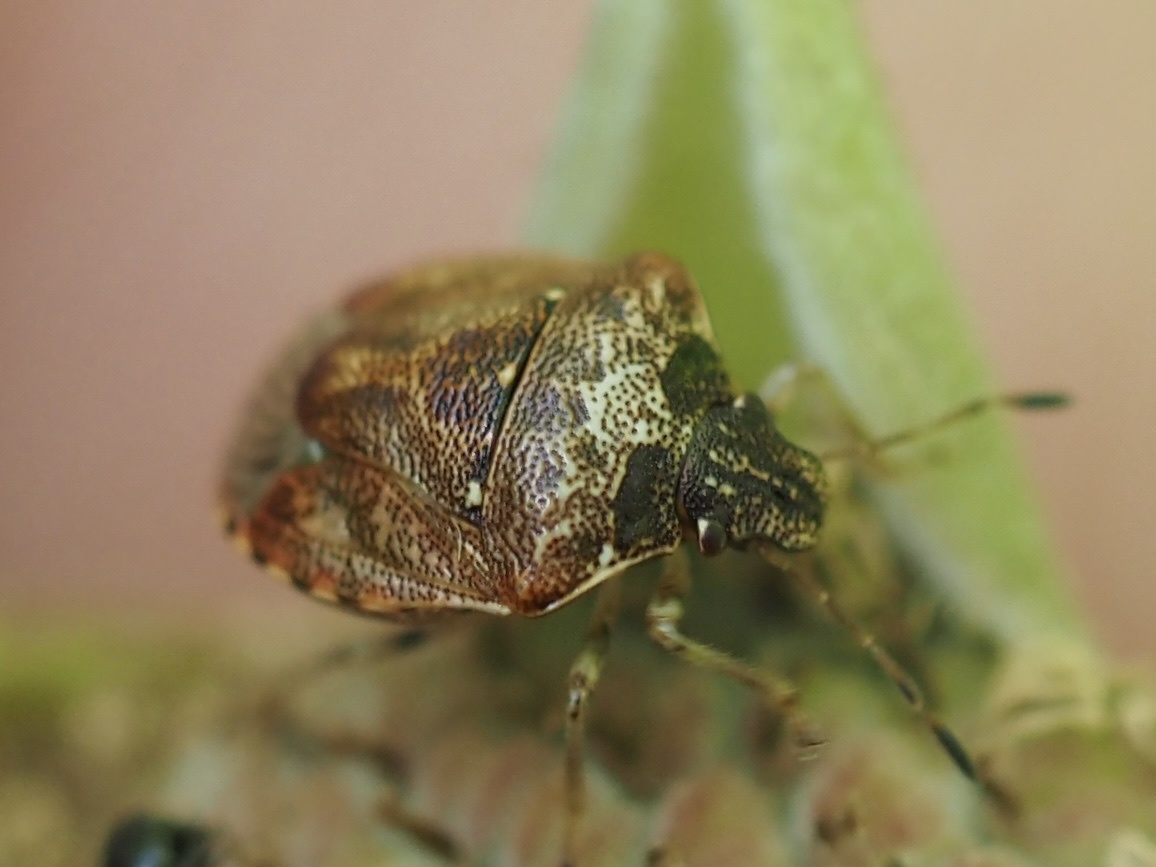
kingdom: Animalia
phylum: Arthropoda
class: Insecta
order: Hemiptera
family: Pentatomidae
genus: Cosmopepla
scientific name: Cosmopepla intergressus
